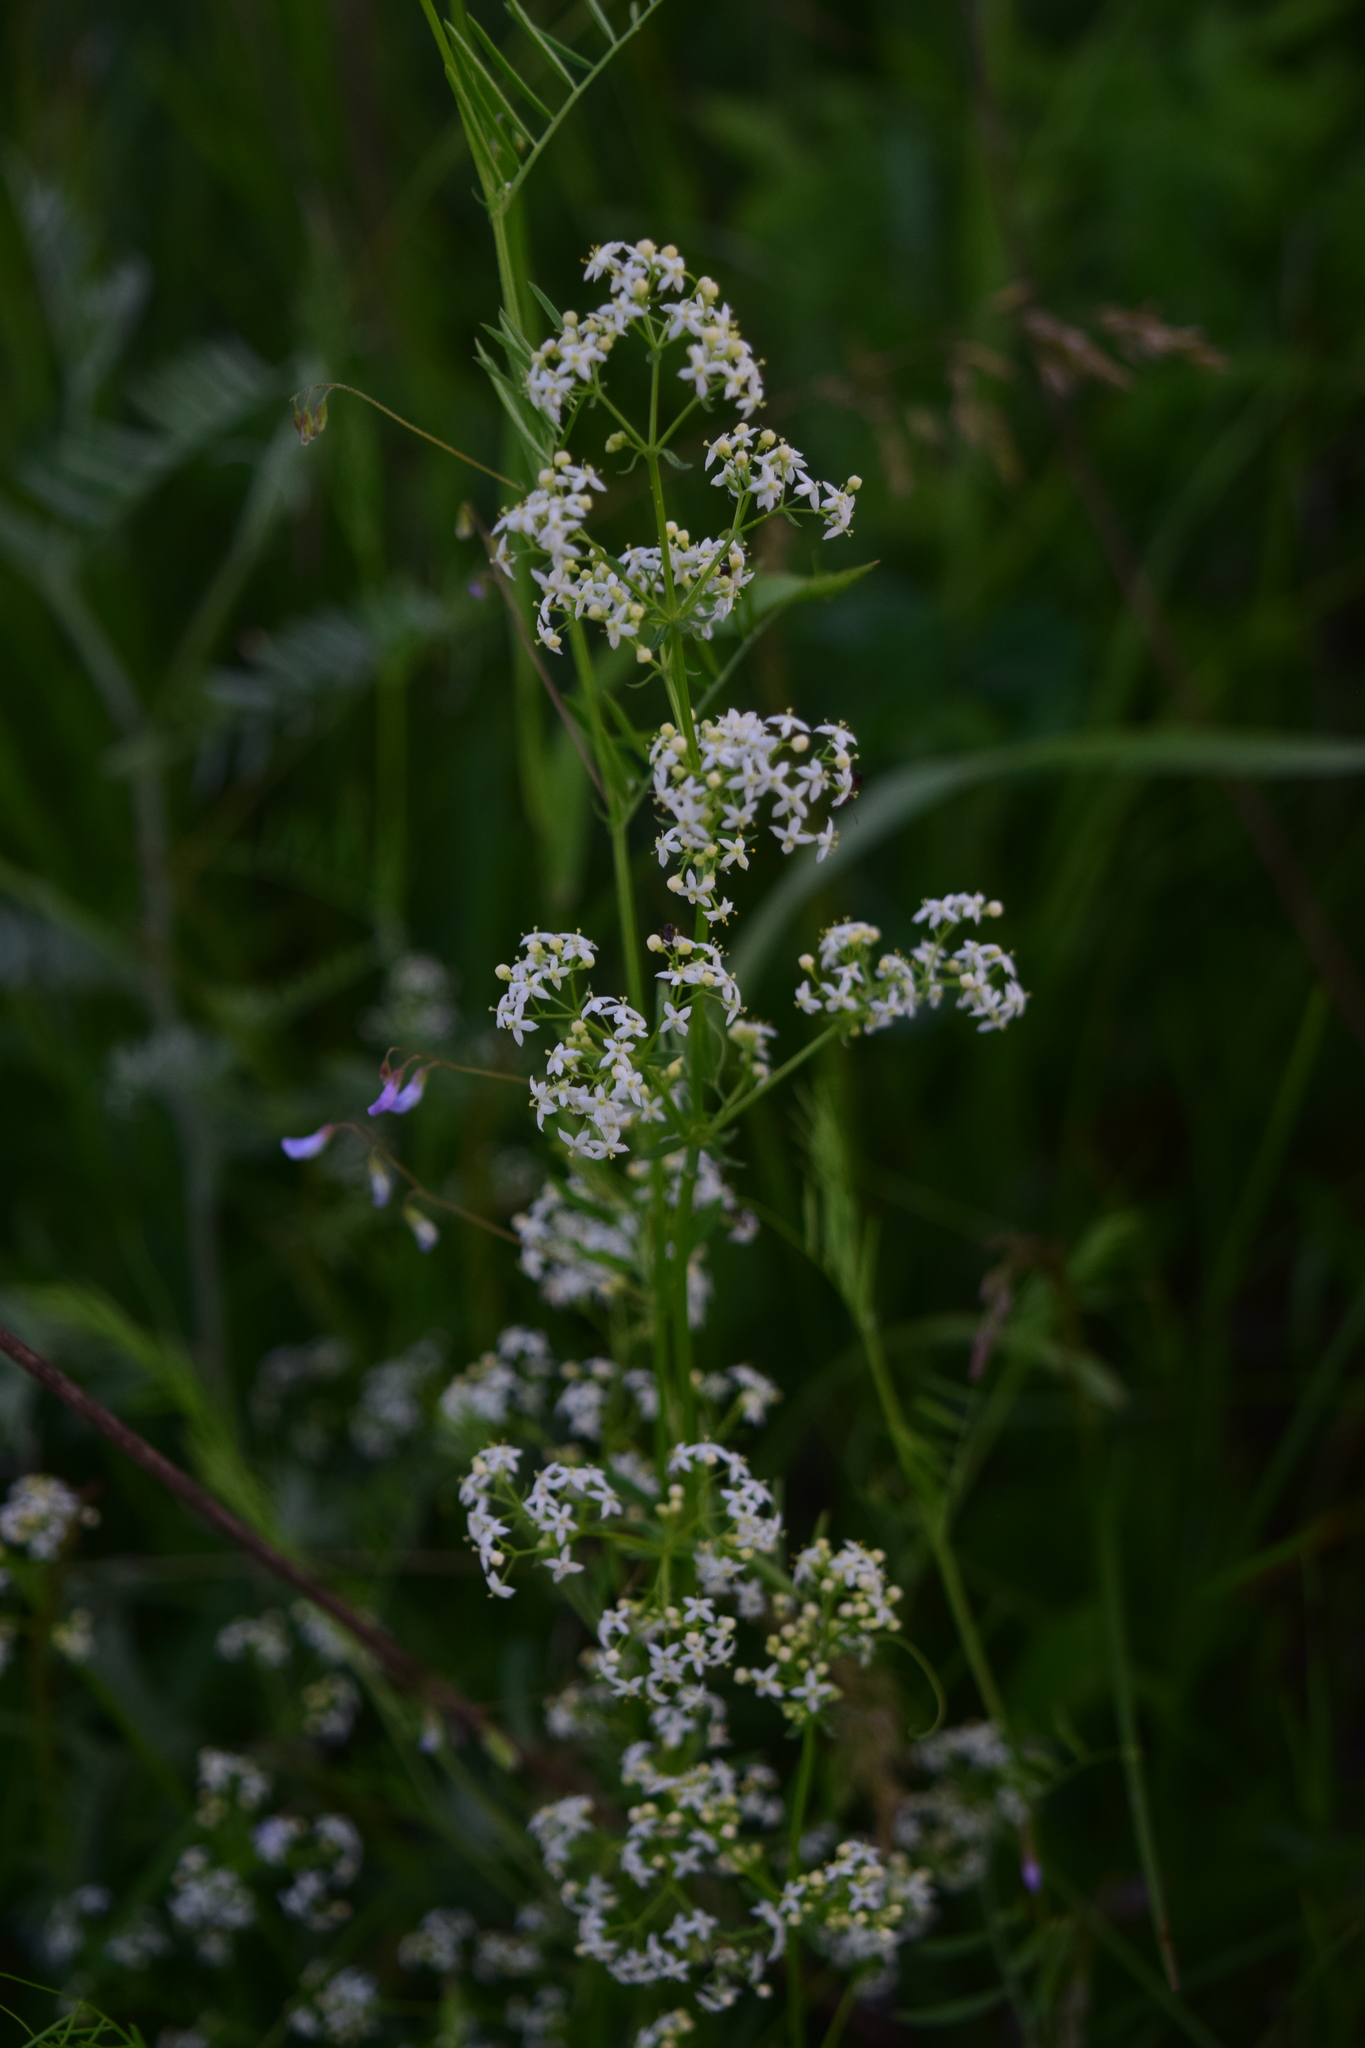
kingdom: Plantae
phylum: Tracheophyta
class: Magnoliopsida
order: Gentianales
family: Rubiaceae
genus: Galium
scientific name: Galium mollugo
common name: Hedge bedstraw
